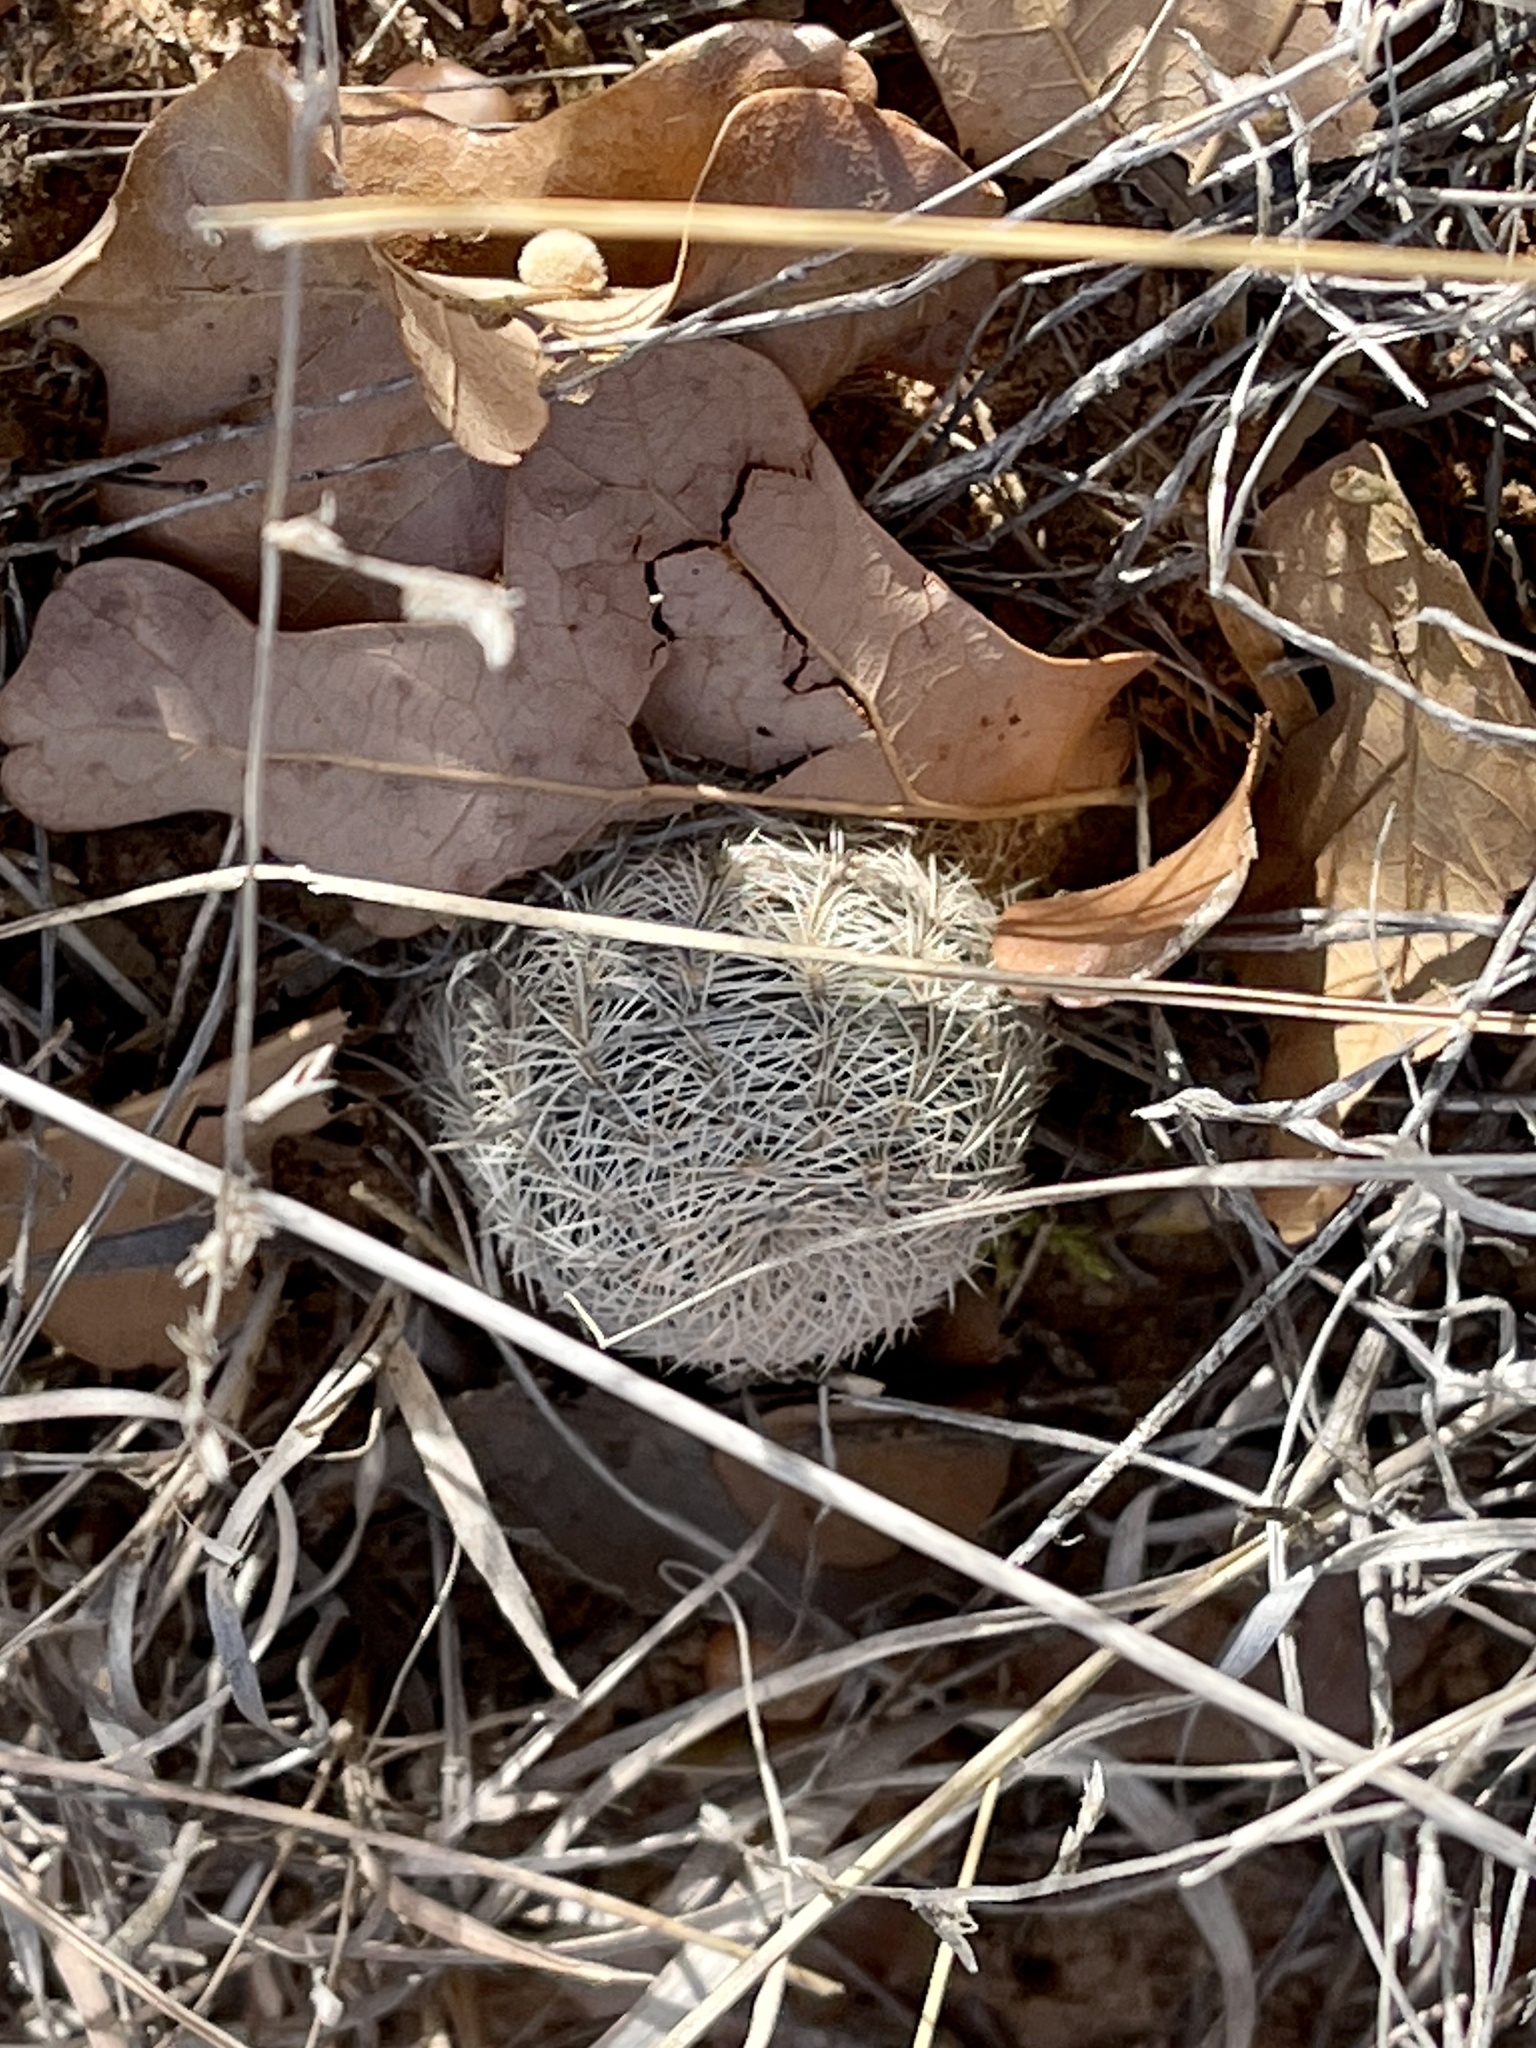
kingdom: Plantae
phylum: Tracheophyta
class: Magnoliopsida
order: Caryophyllales
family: Cactaceae
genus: Echinocereus
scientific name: Echinocereus reichenbachii
